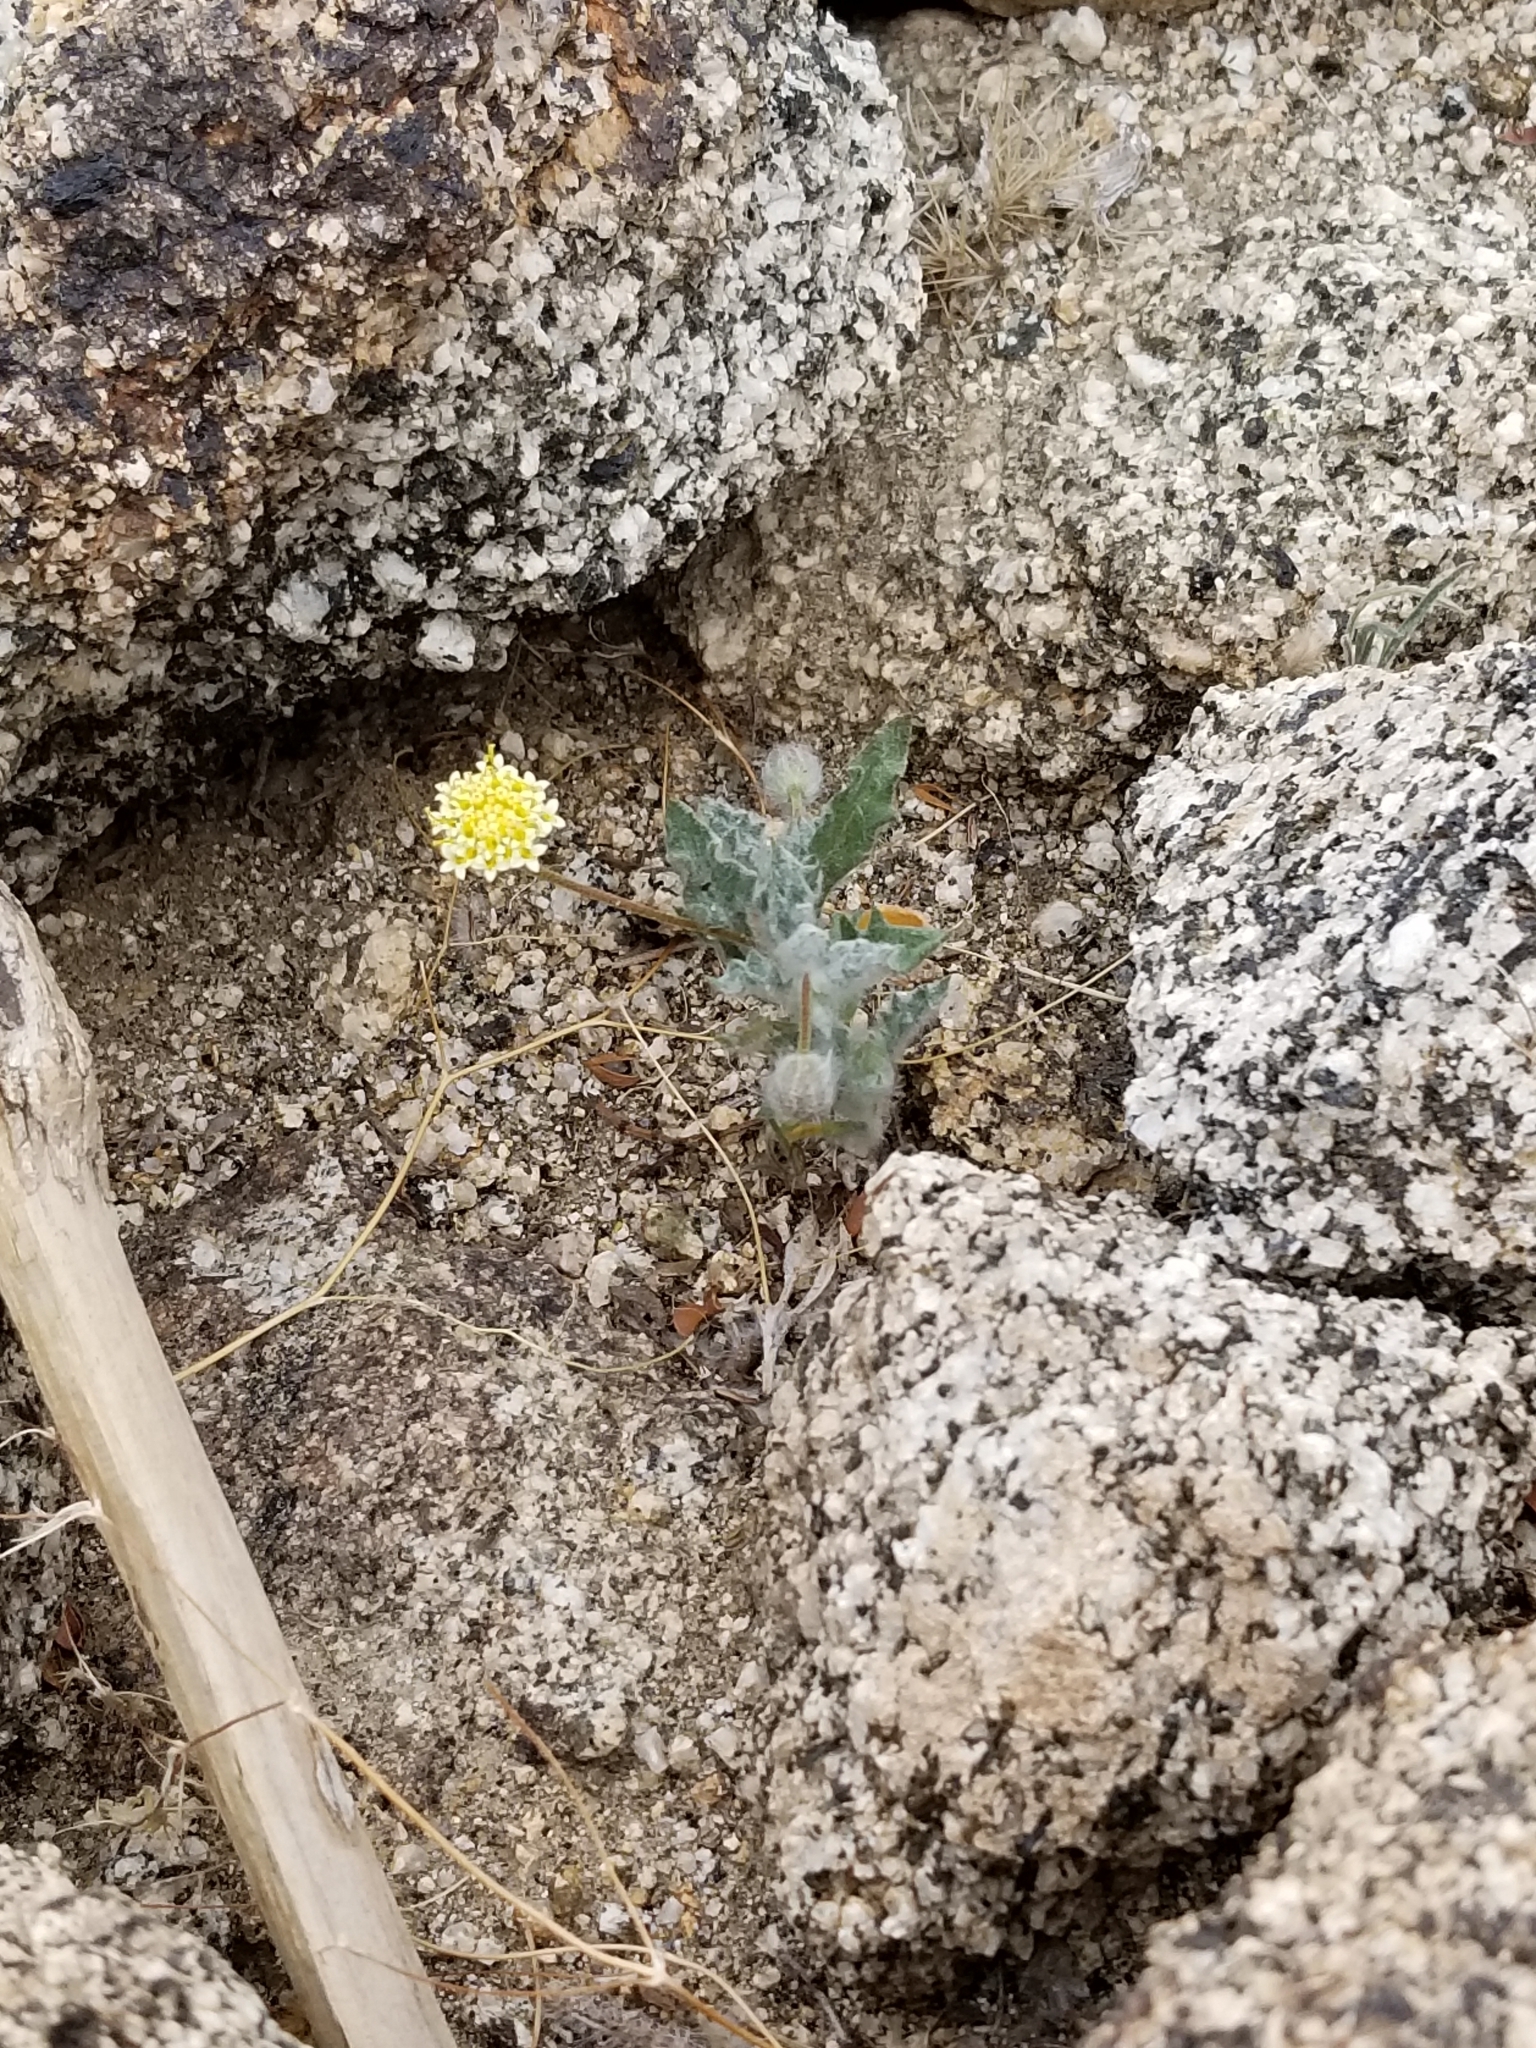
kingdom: Plantae
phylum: Tracheophyta
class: Magnoliopsida
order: Asterales
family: Asteraceae
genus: Trichoptilium
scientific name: Trichoptilium incisum
